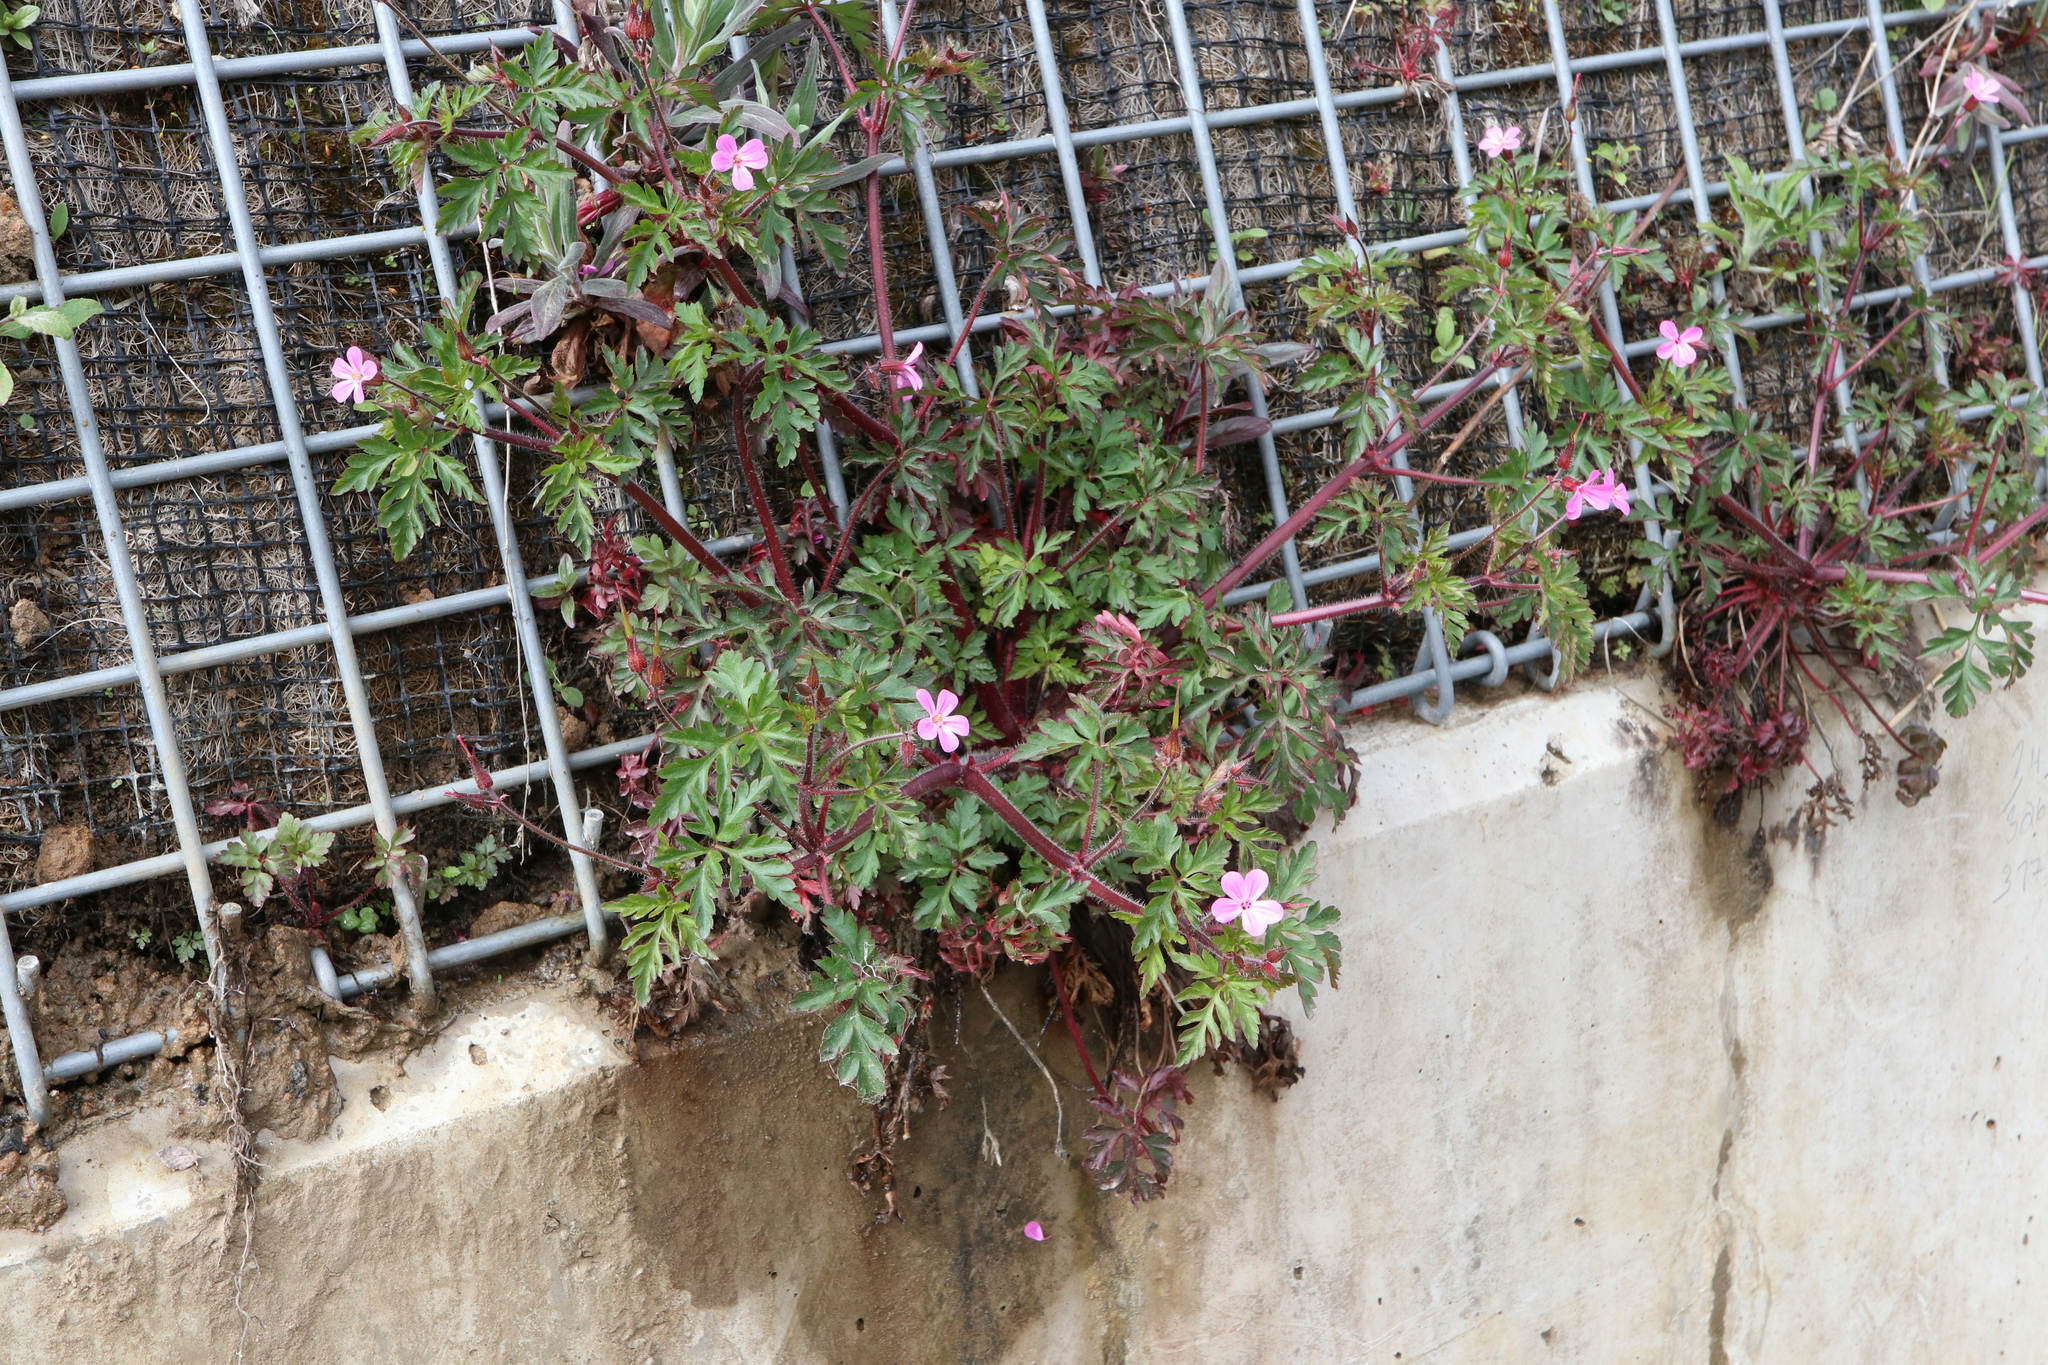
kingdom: Plantae
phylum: Tracheophyta
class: Magnoliopsida
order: Geraniales
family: Geraniaceae
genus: Geranium
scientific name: Geranium robertianum
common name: Herb-robert
